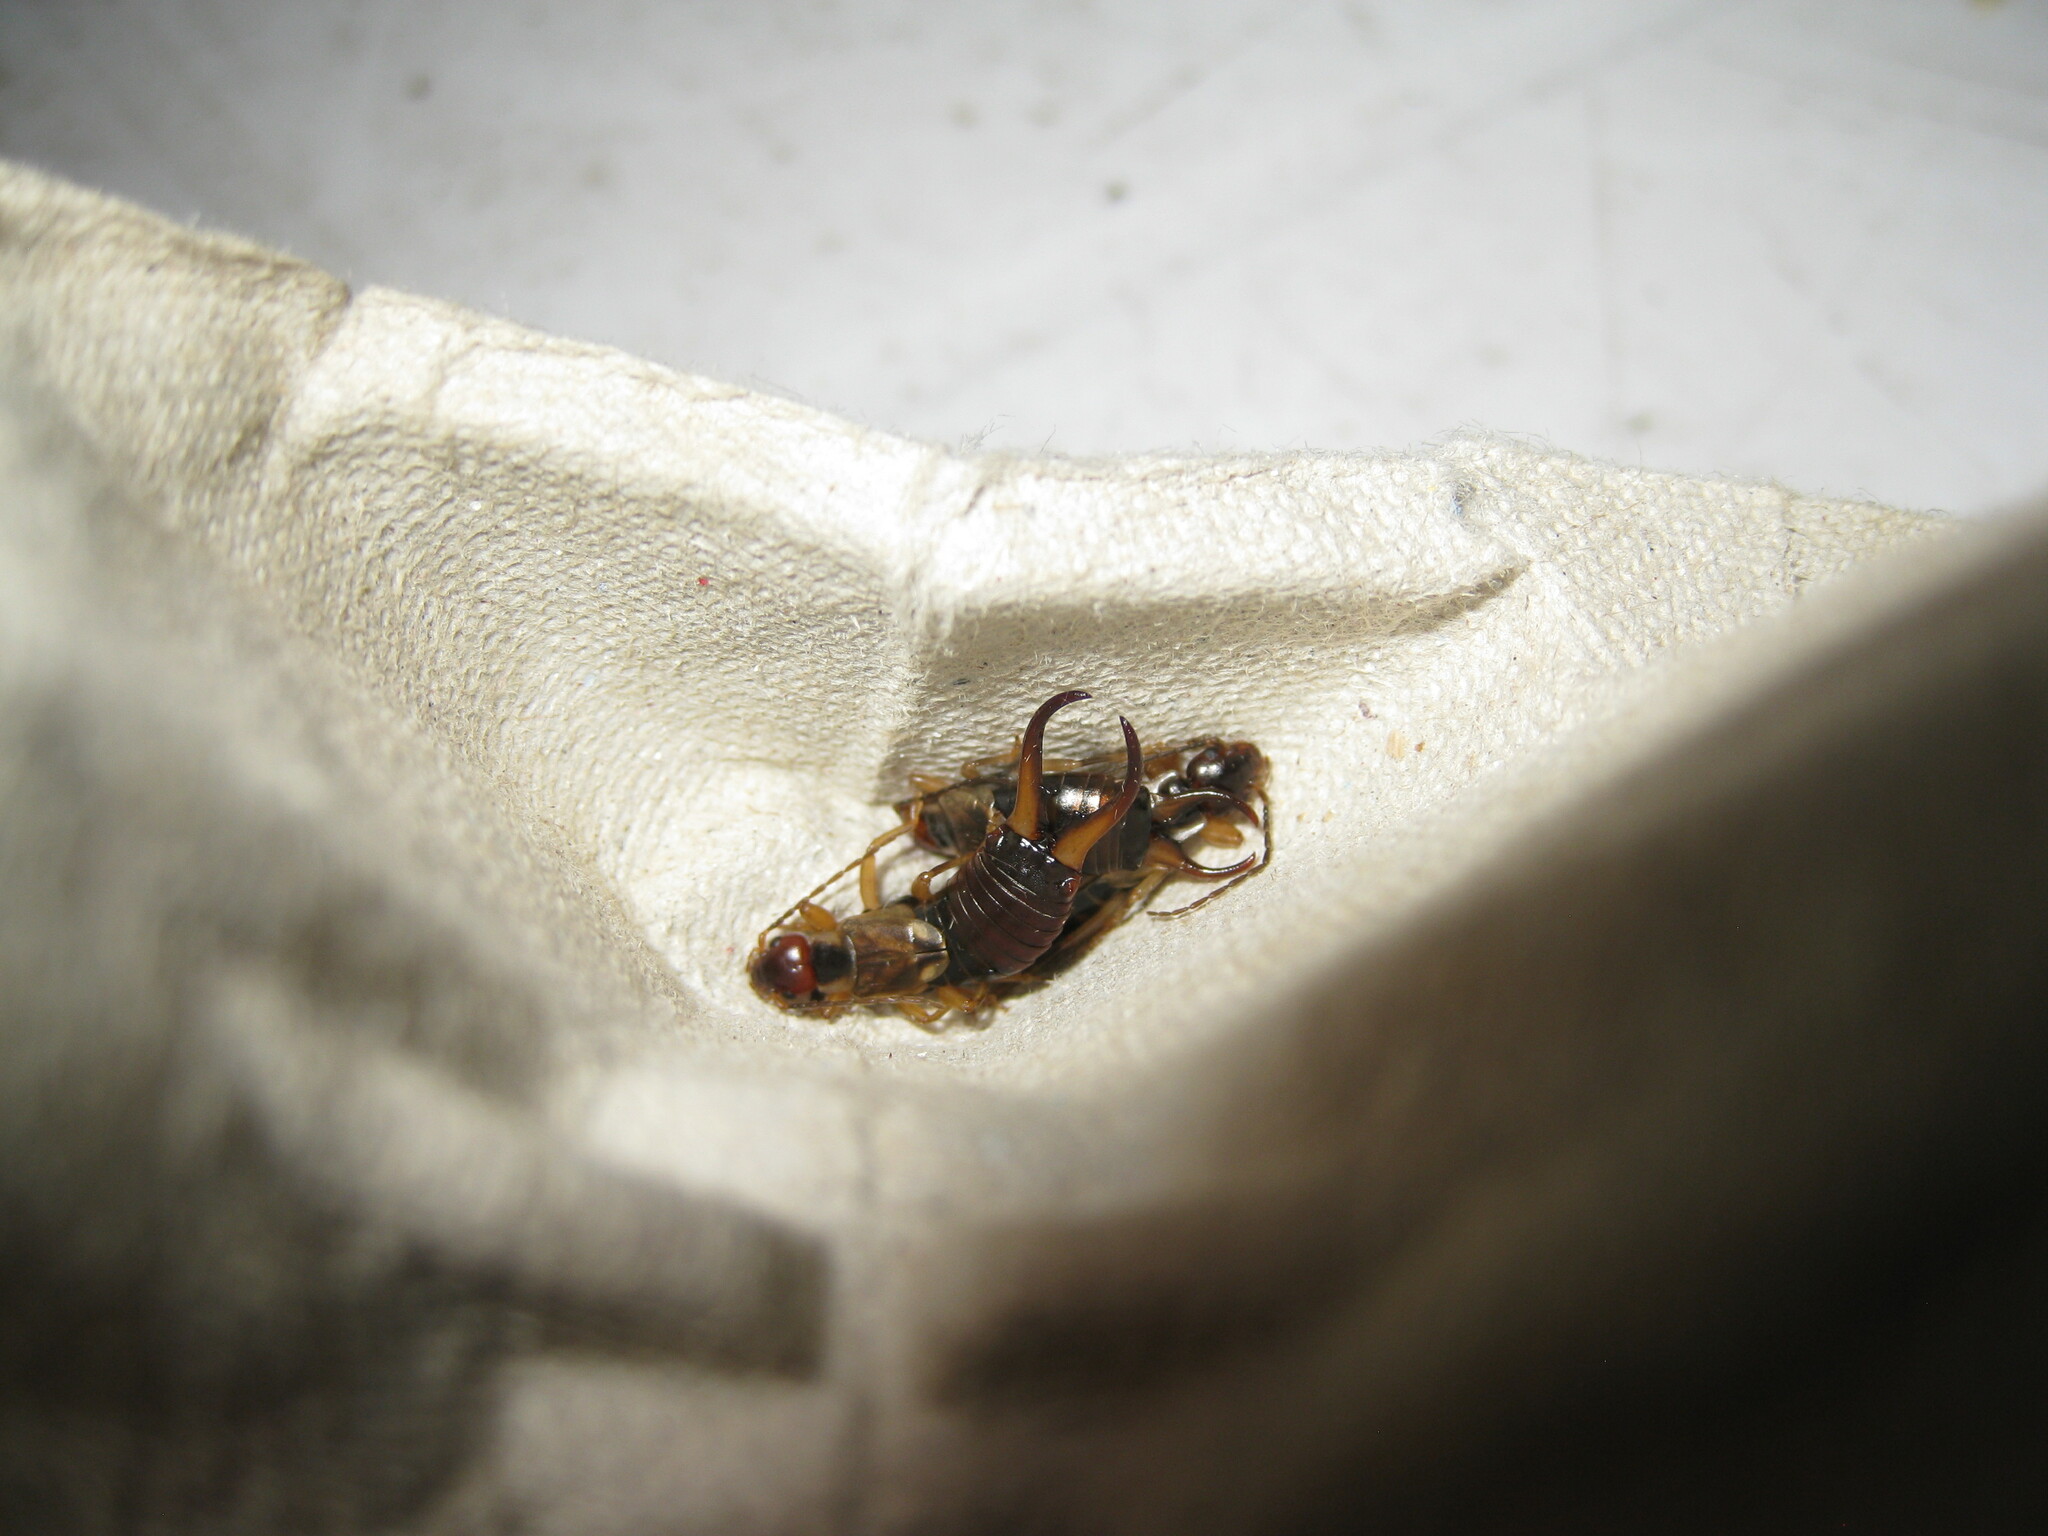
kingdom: Animalia
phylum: Arthropoda
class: Insecta
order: Dermaptera
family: Forficulidae
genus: Forficula
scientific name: Forficula
